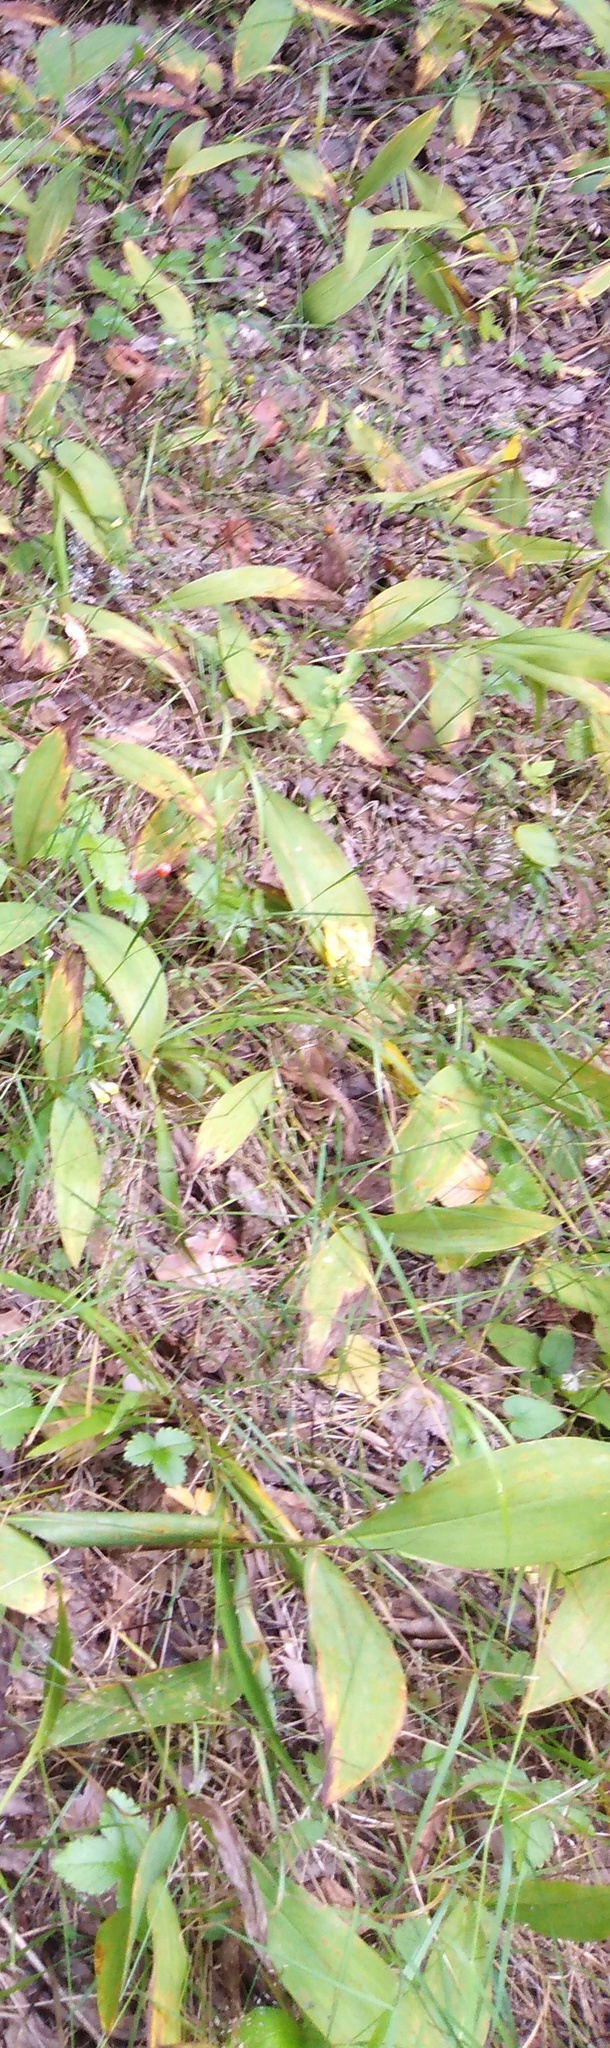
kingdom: Plantae
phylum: Tracheophyta
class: Liliopsida
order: Asparagales
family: Asparagaceae
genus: Convallaria
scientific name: Convallaria majalis
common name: Lily-of-the-valley
